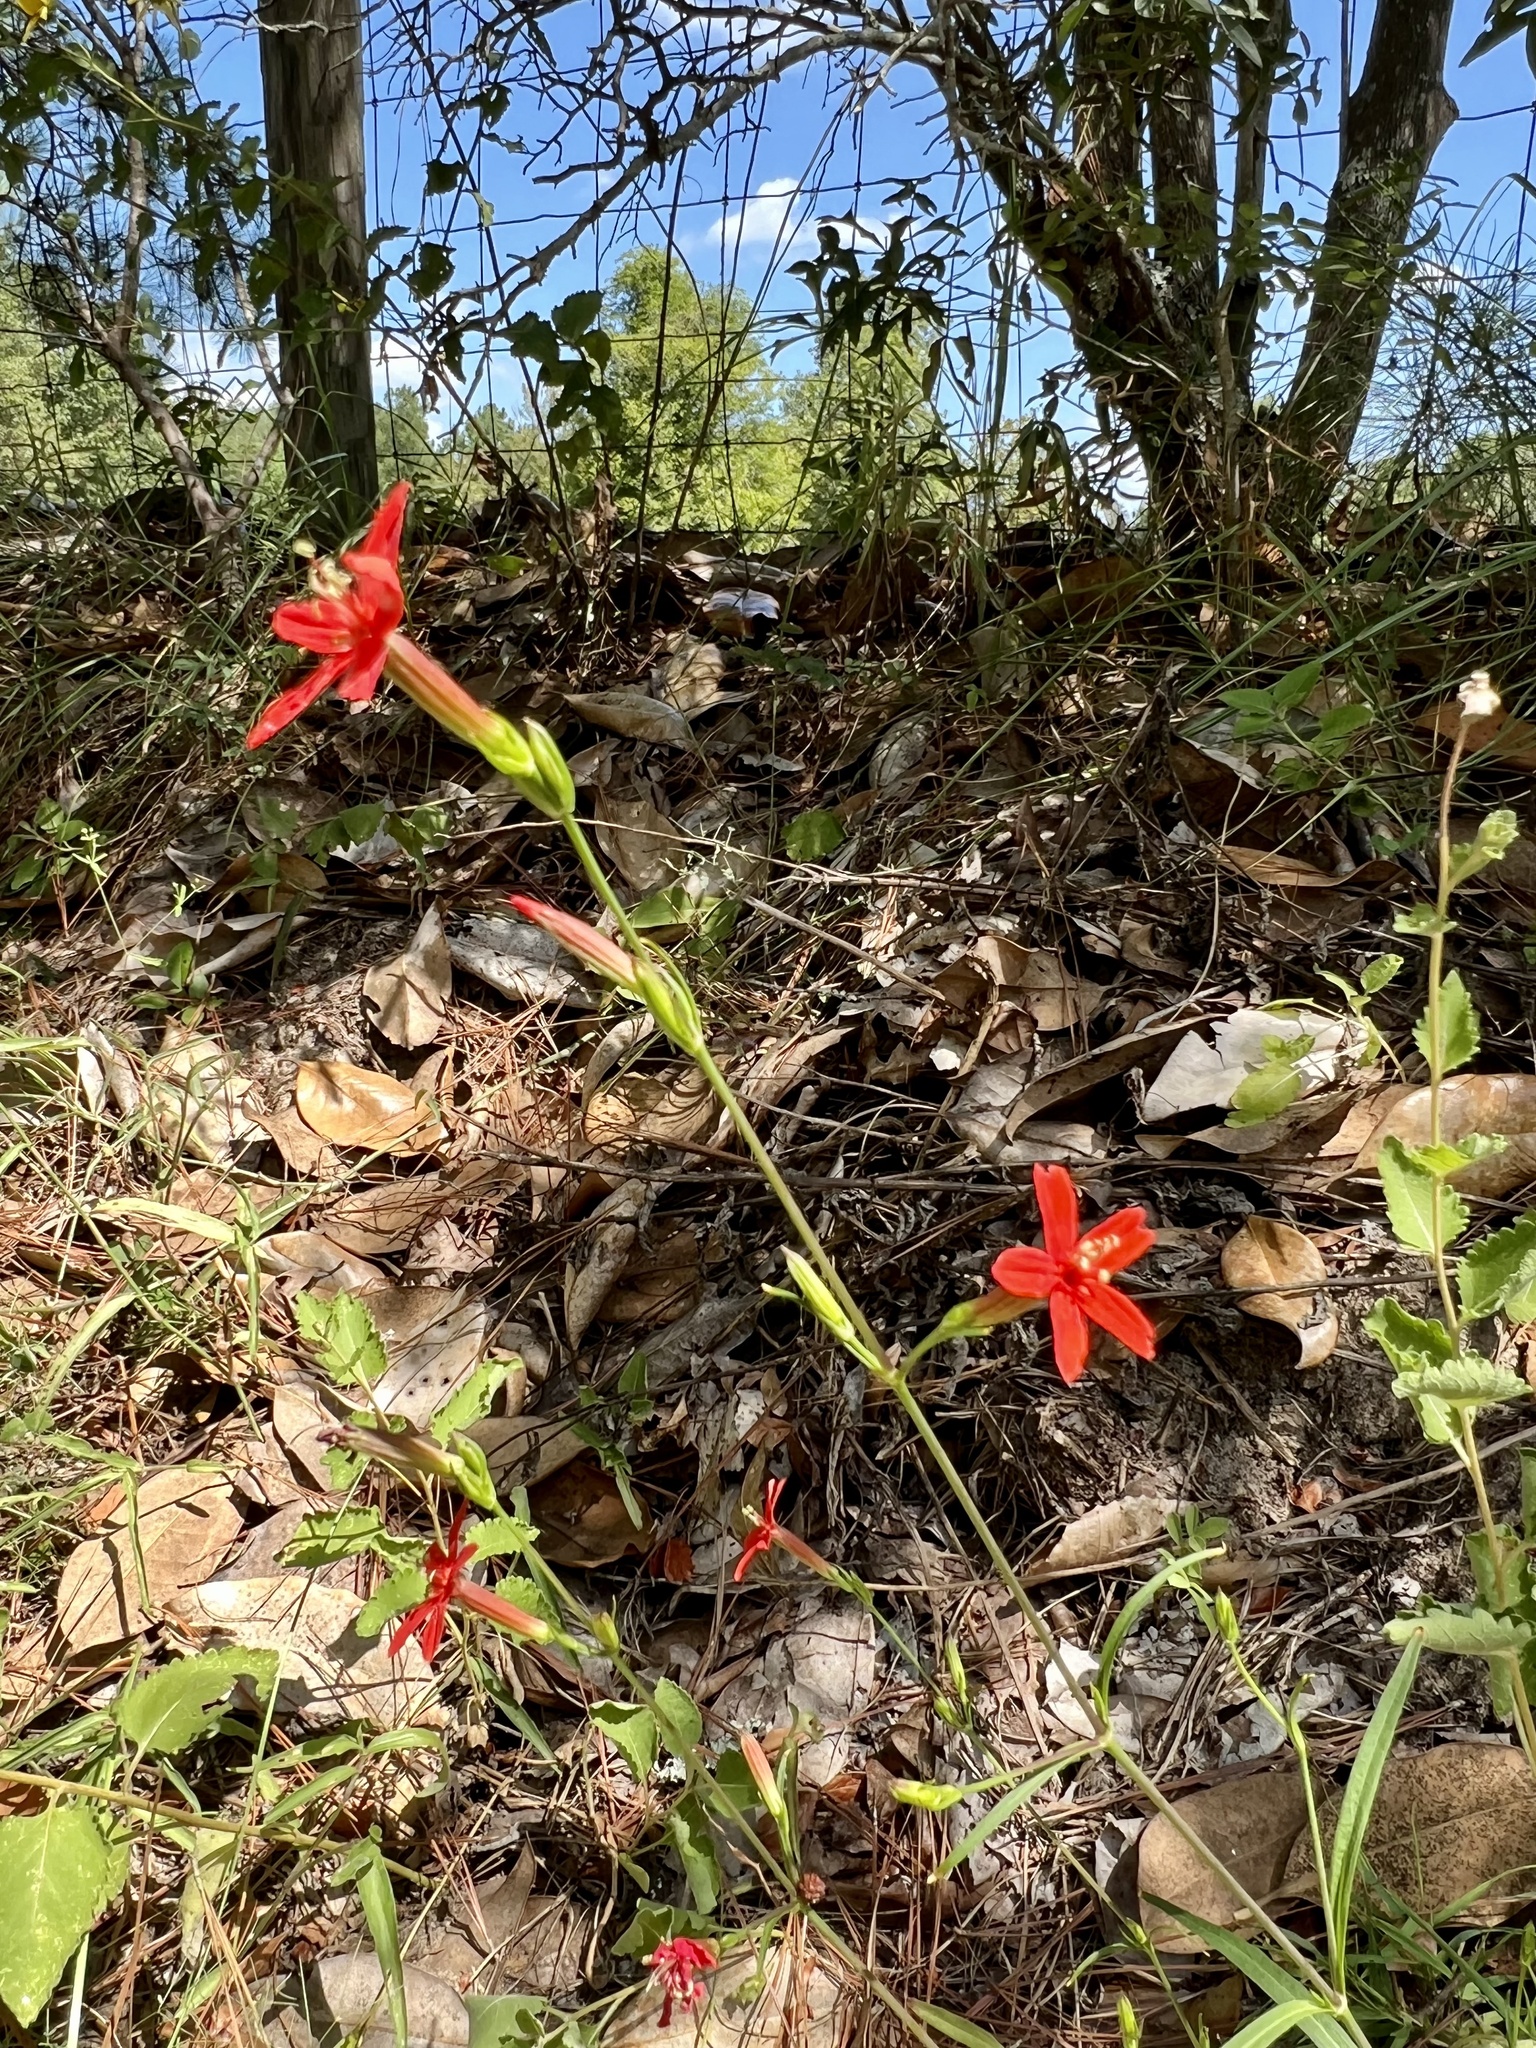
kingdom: Plantae
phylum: Tracheophyta
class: Magnoliopsida
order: Caryophyllales
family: Caryophyllaceae
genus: Silene
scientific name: Silene subciliata
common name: Prairie fire-pink
